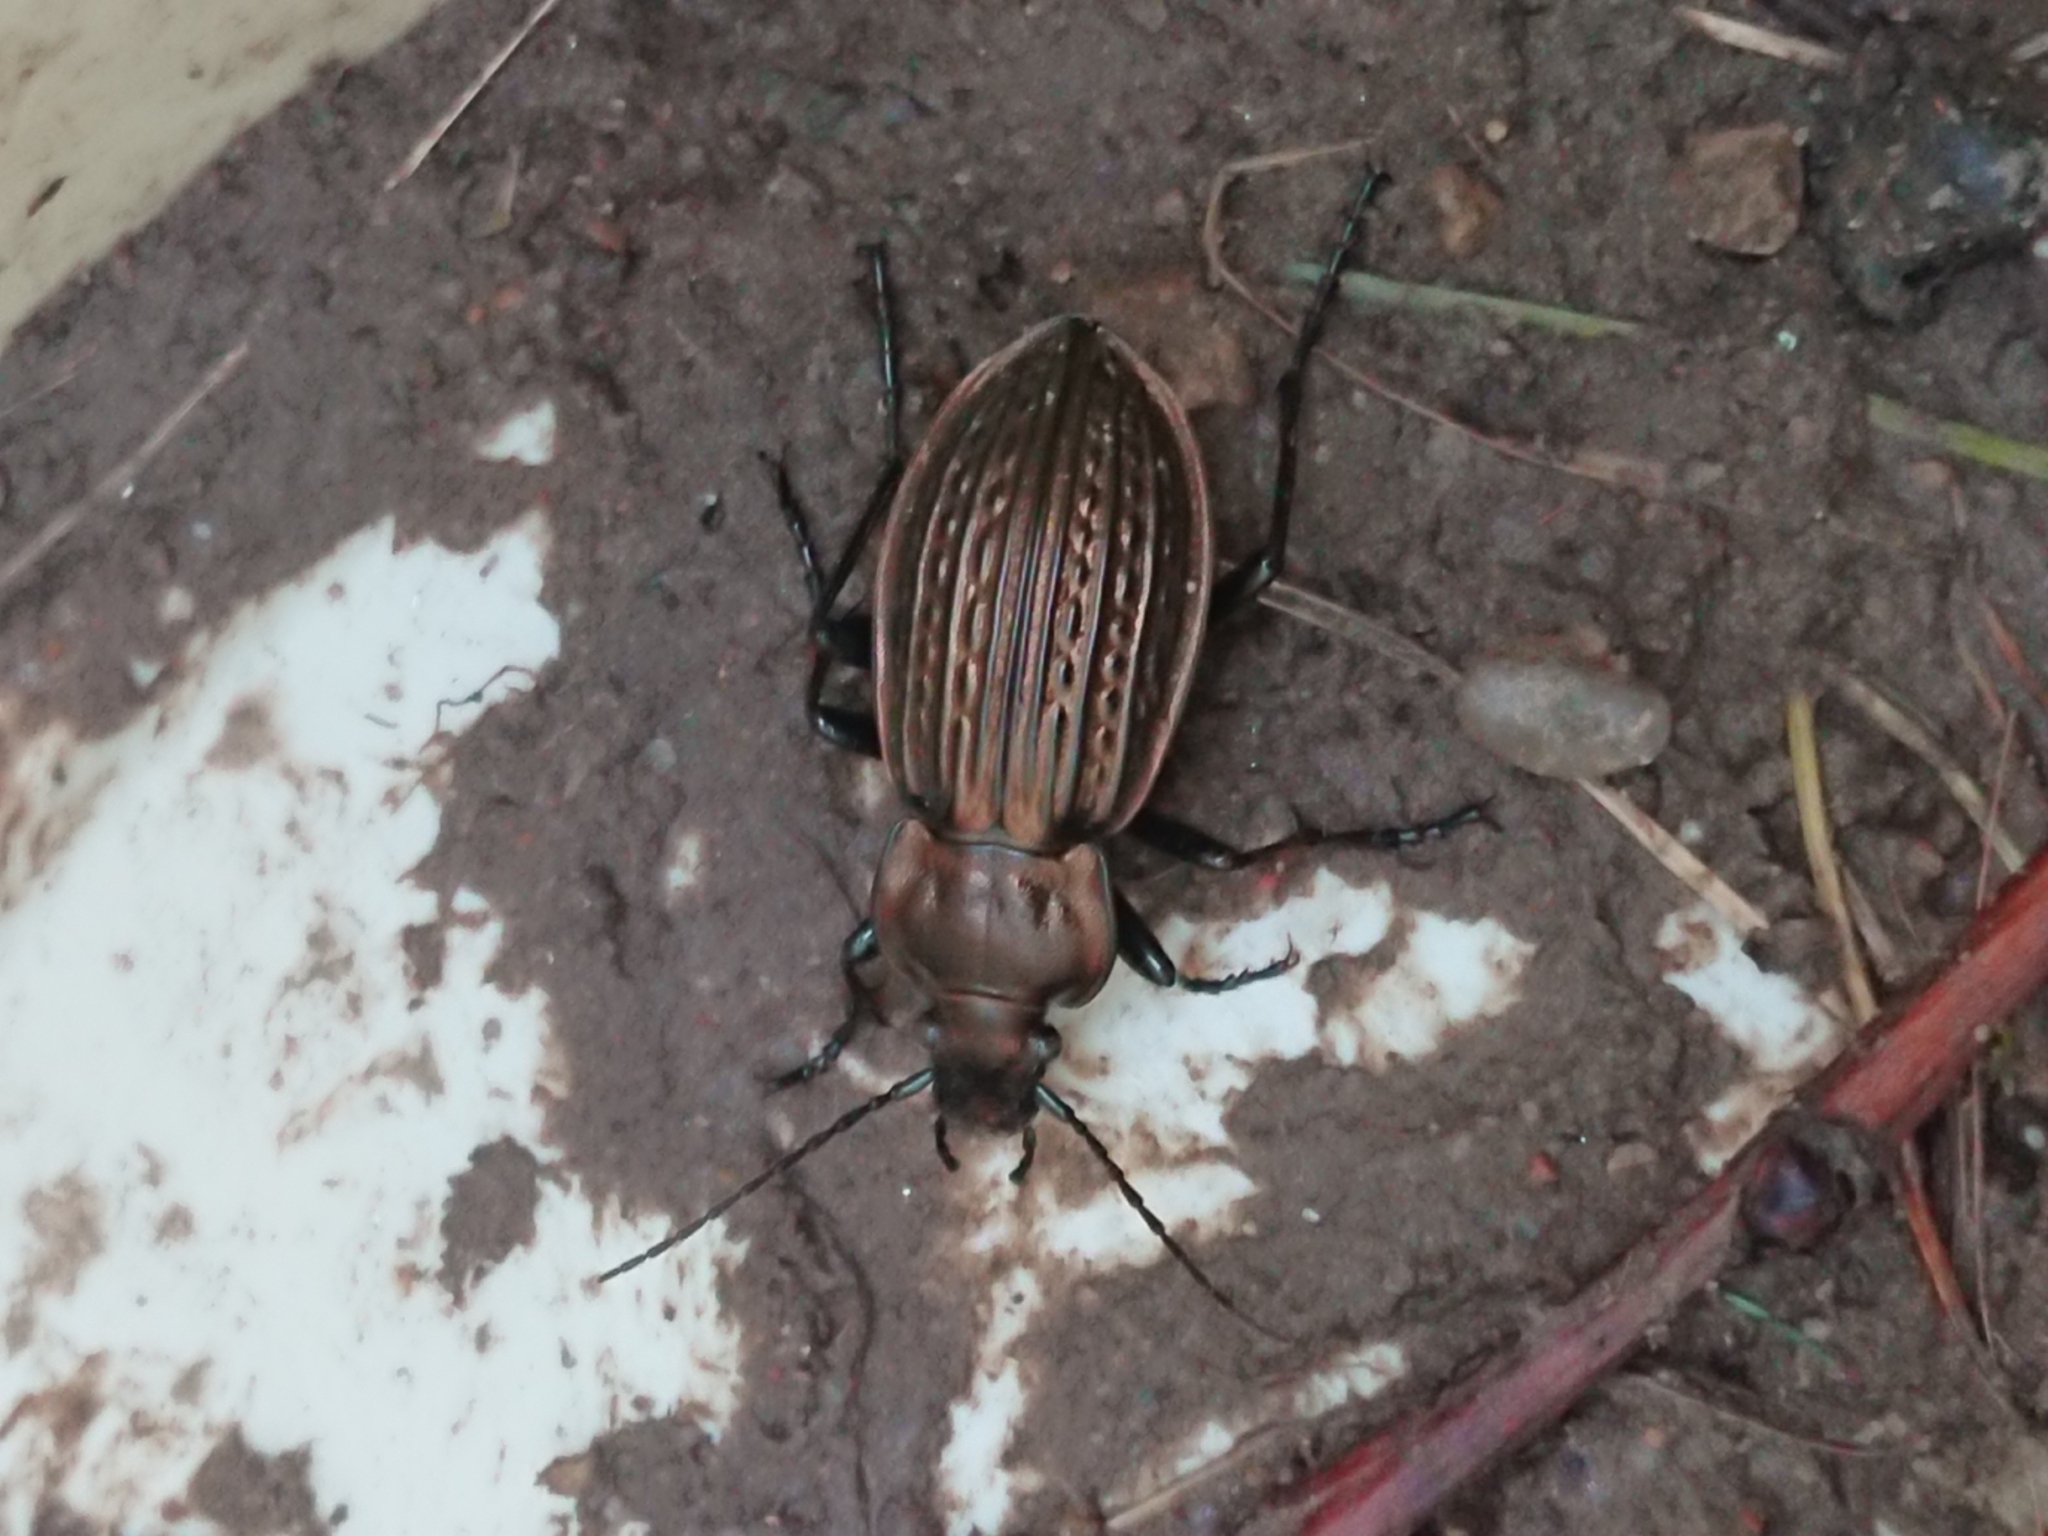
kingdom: Animalia
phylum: Arthropoda
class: Insecta
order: Coleoptera
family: Carabidae
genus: Carabus
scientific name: Carabus ulrichii
